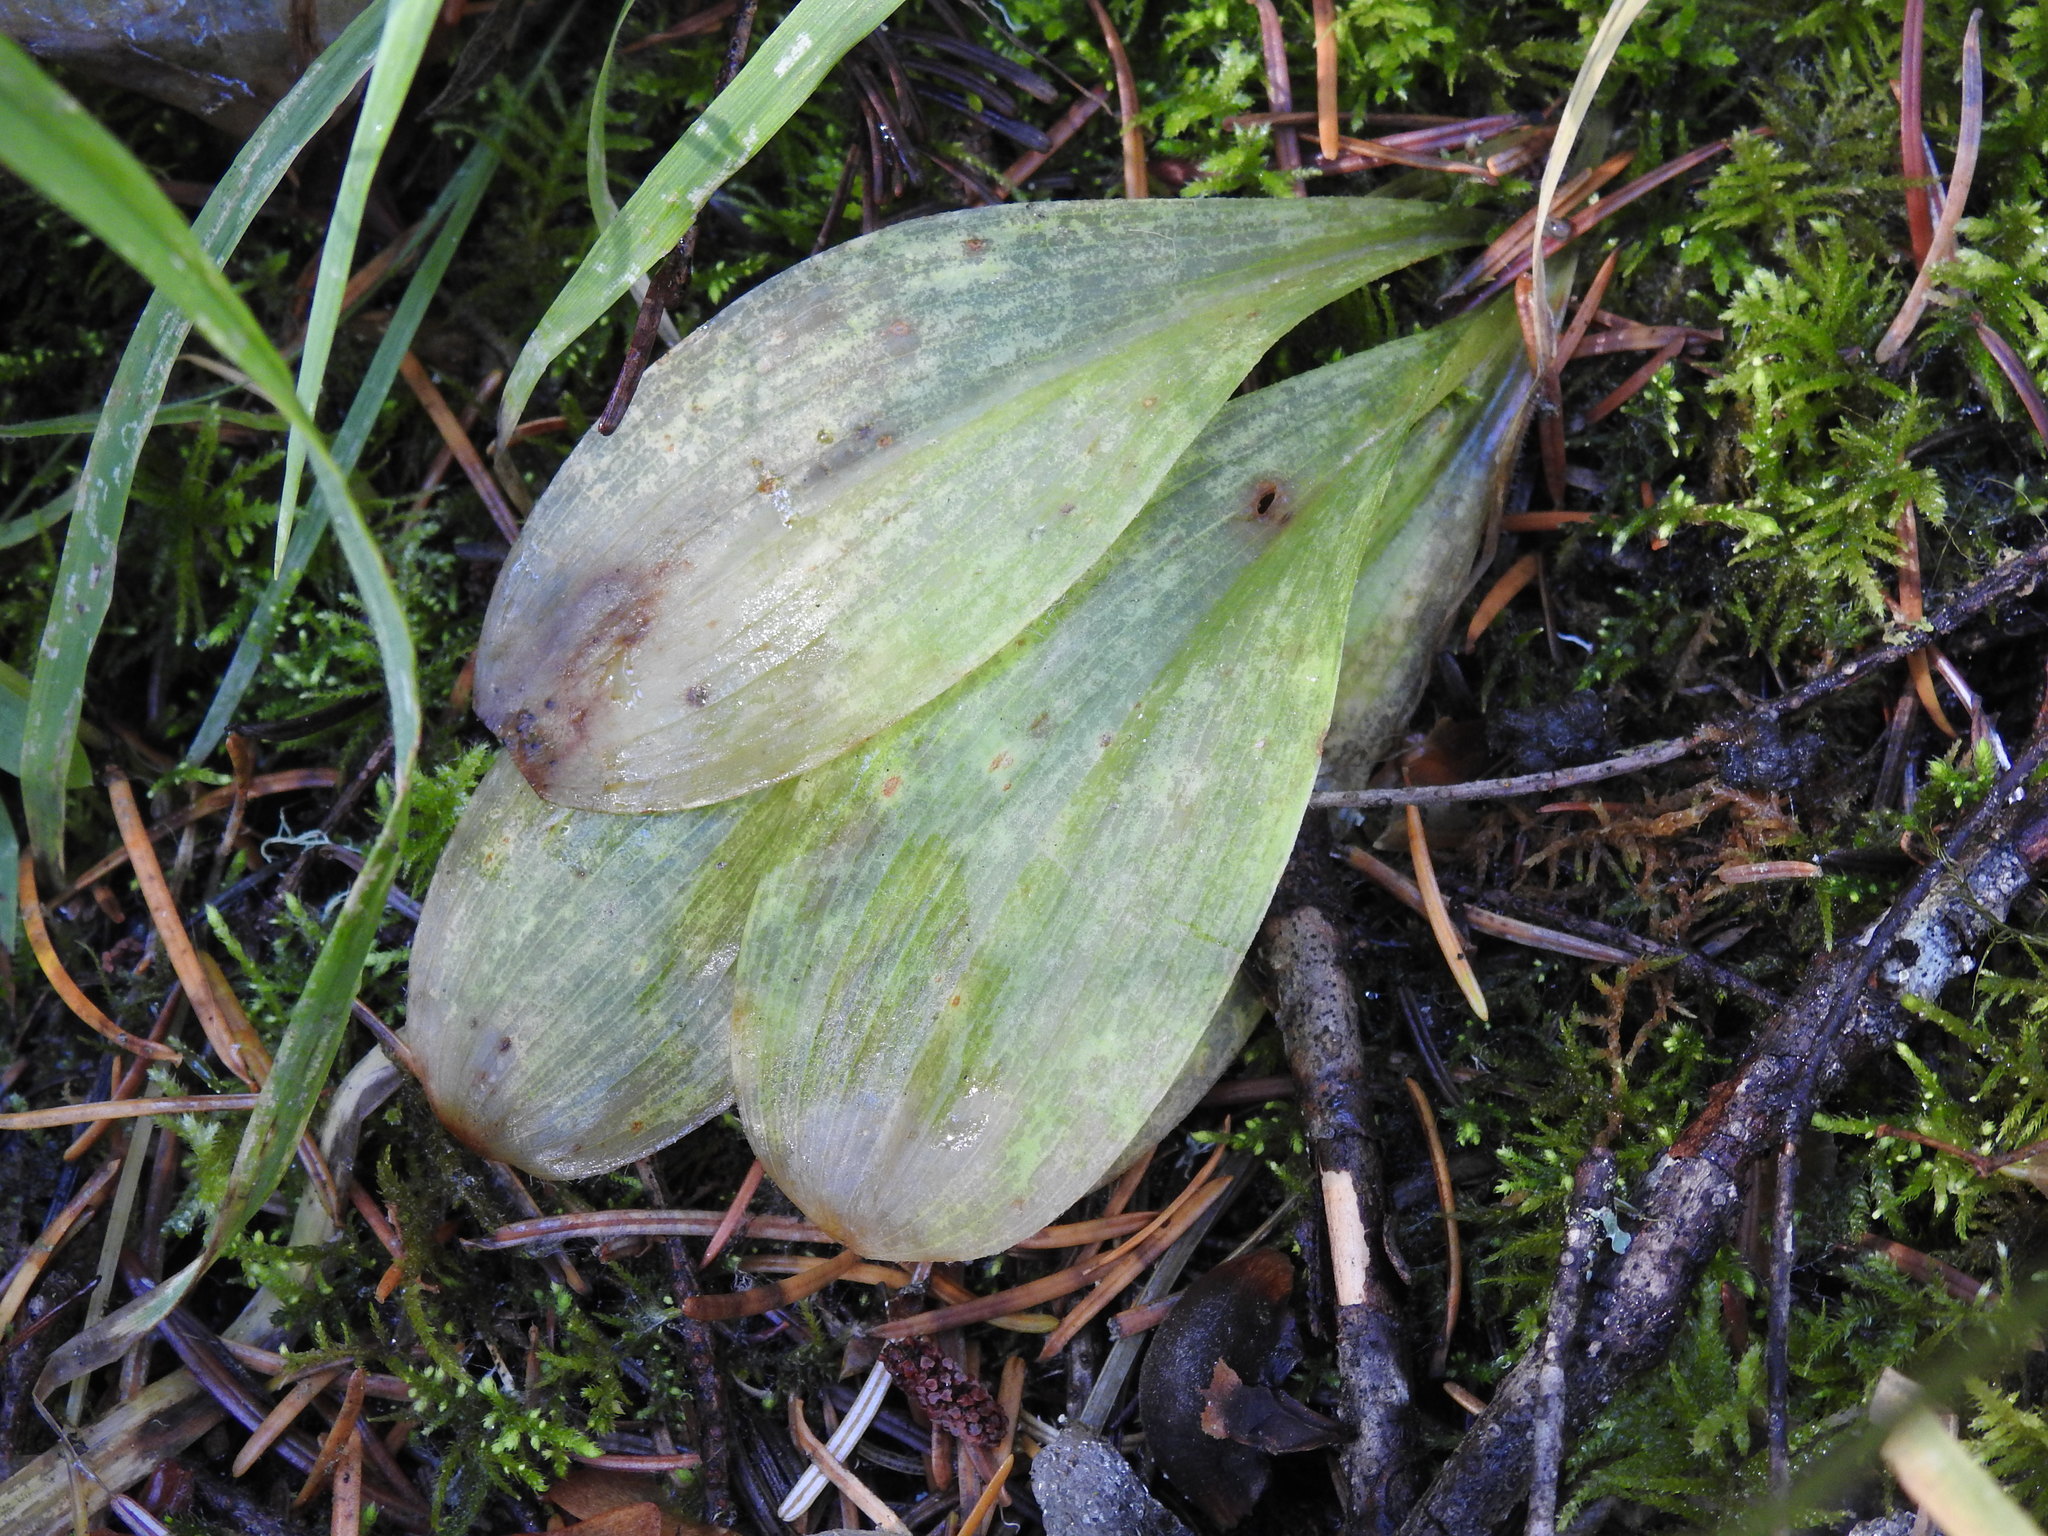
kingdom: Plantae
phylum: Tracheophyta
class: Liliopsida
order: Liliales
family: Liliaceae
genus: Clintonia
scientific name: Clintonia uniflora
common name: Queen's cup
